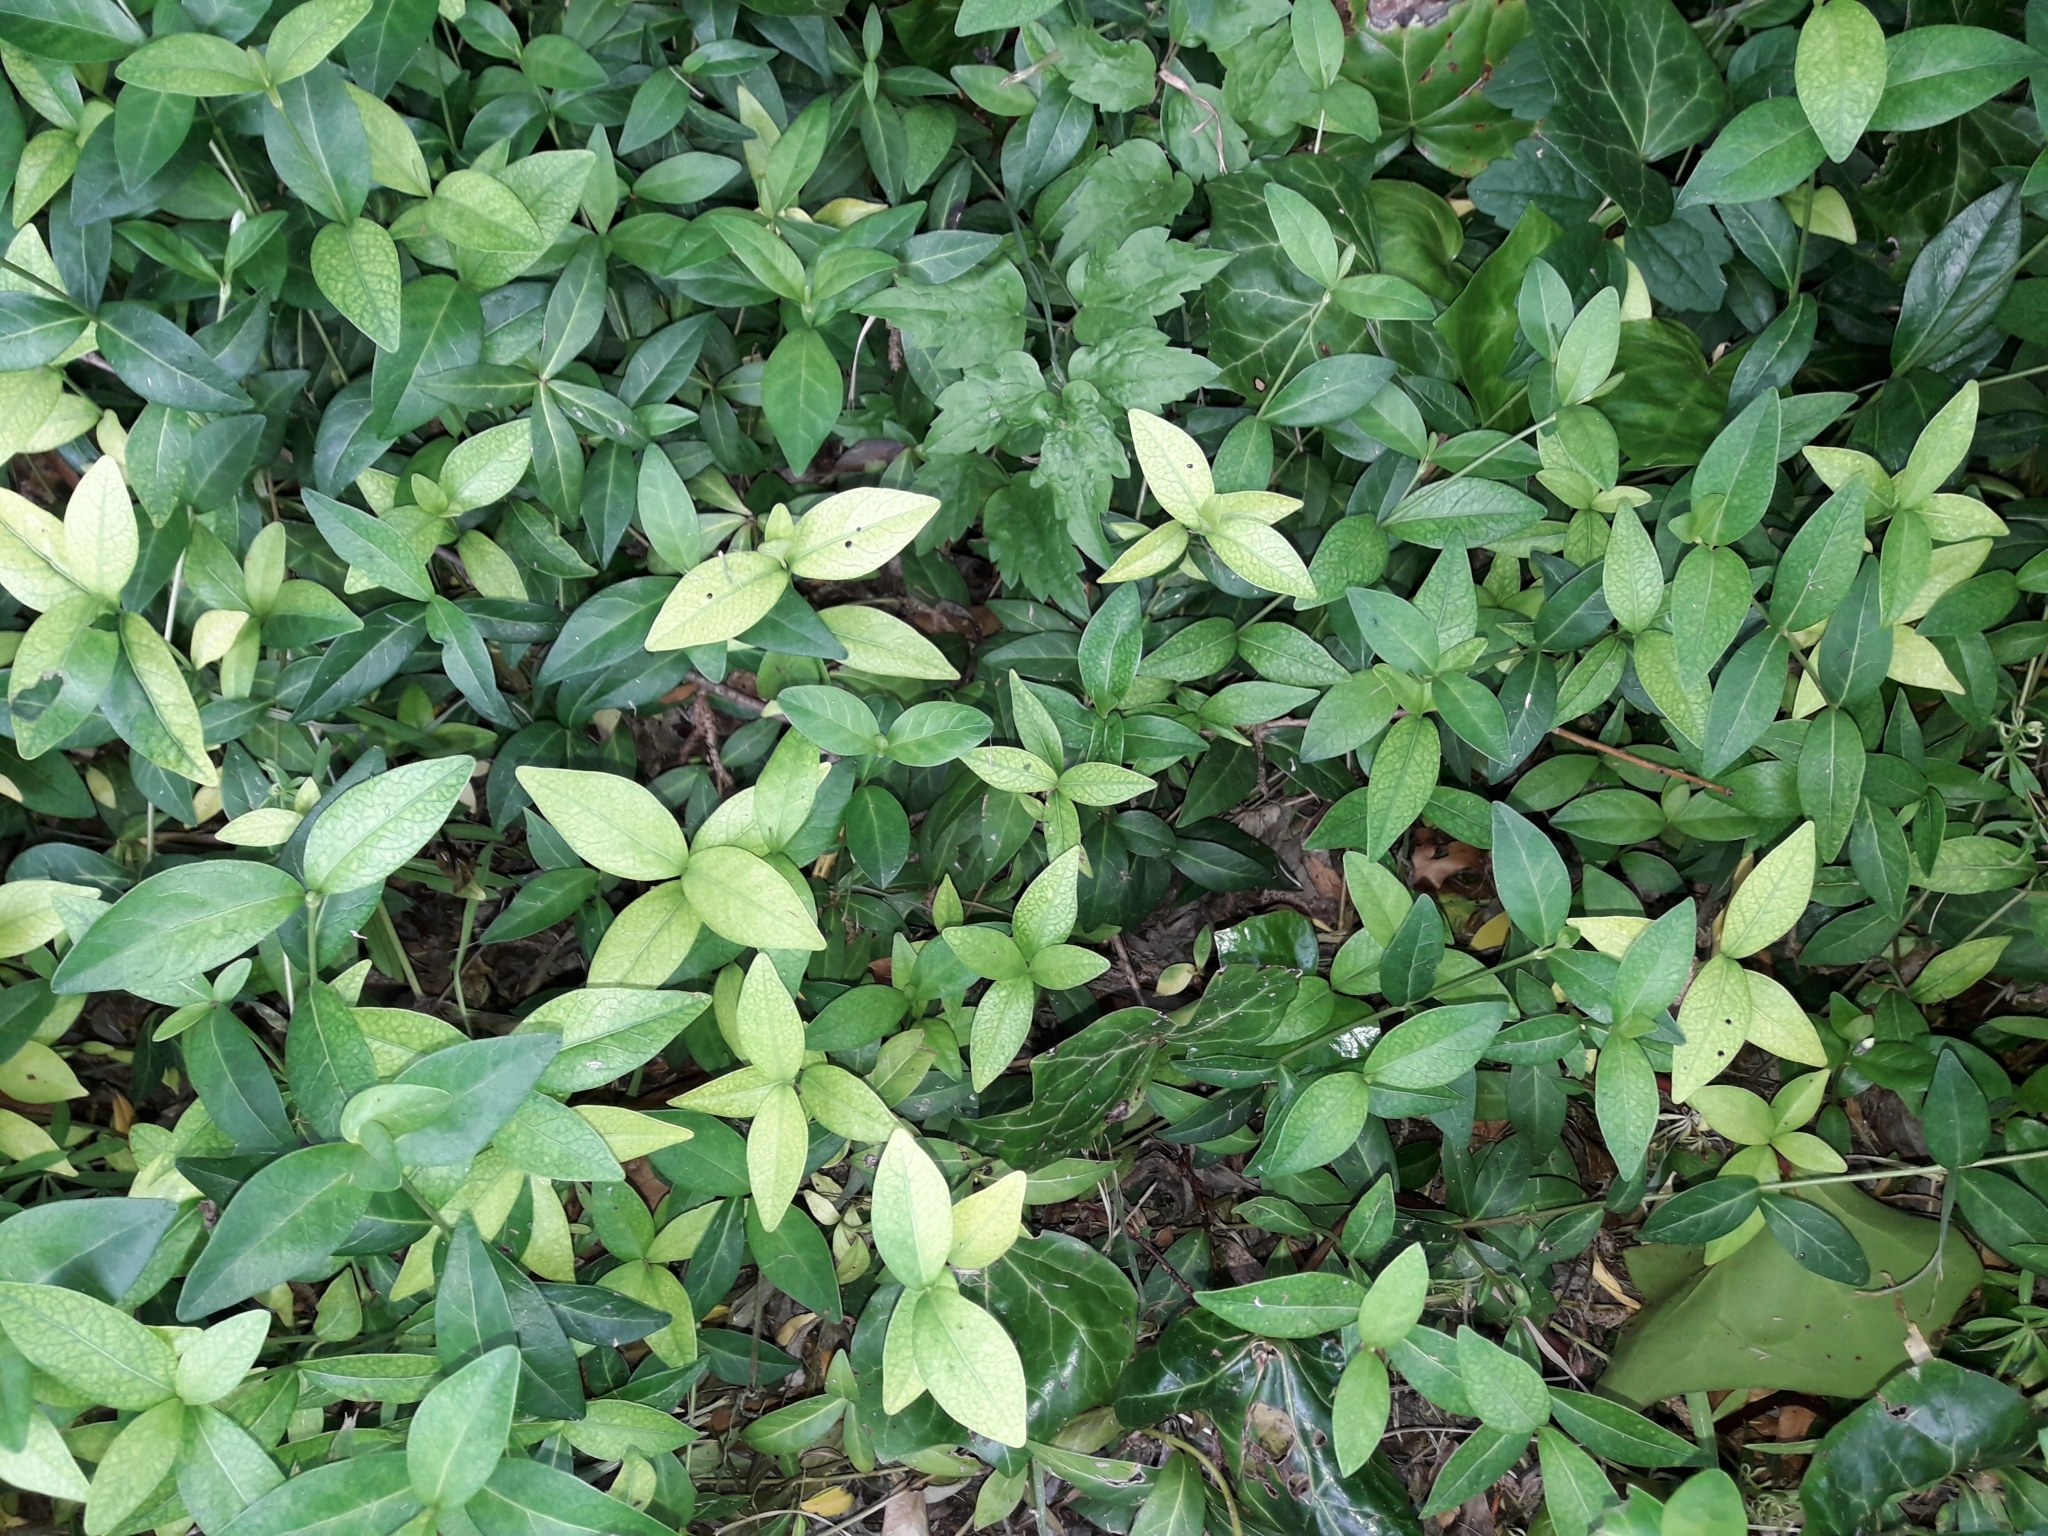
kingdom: Plantae
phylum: Tracheophyta
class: Magnoliopsida
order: Gentianales
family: Apocynaceae
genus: Vinca
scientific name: Vinca minor
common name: Lesser periwinkle
